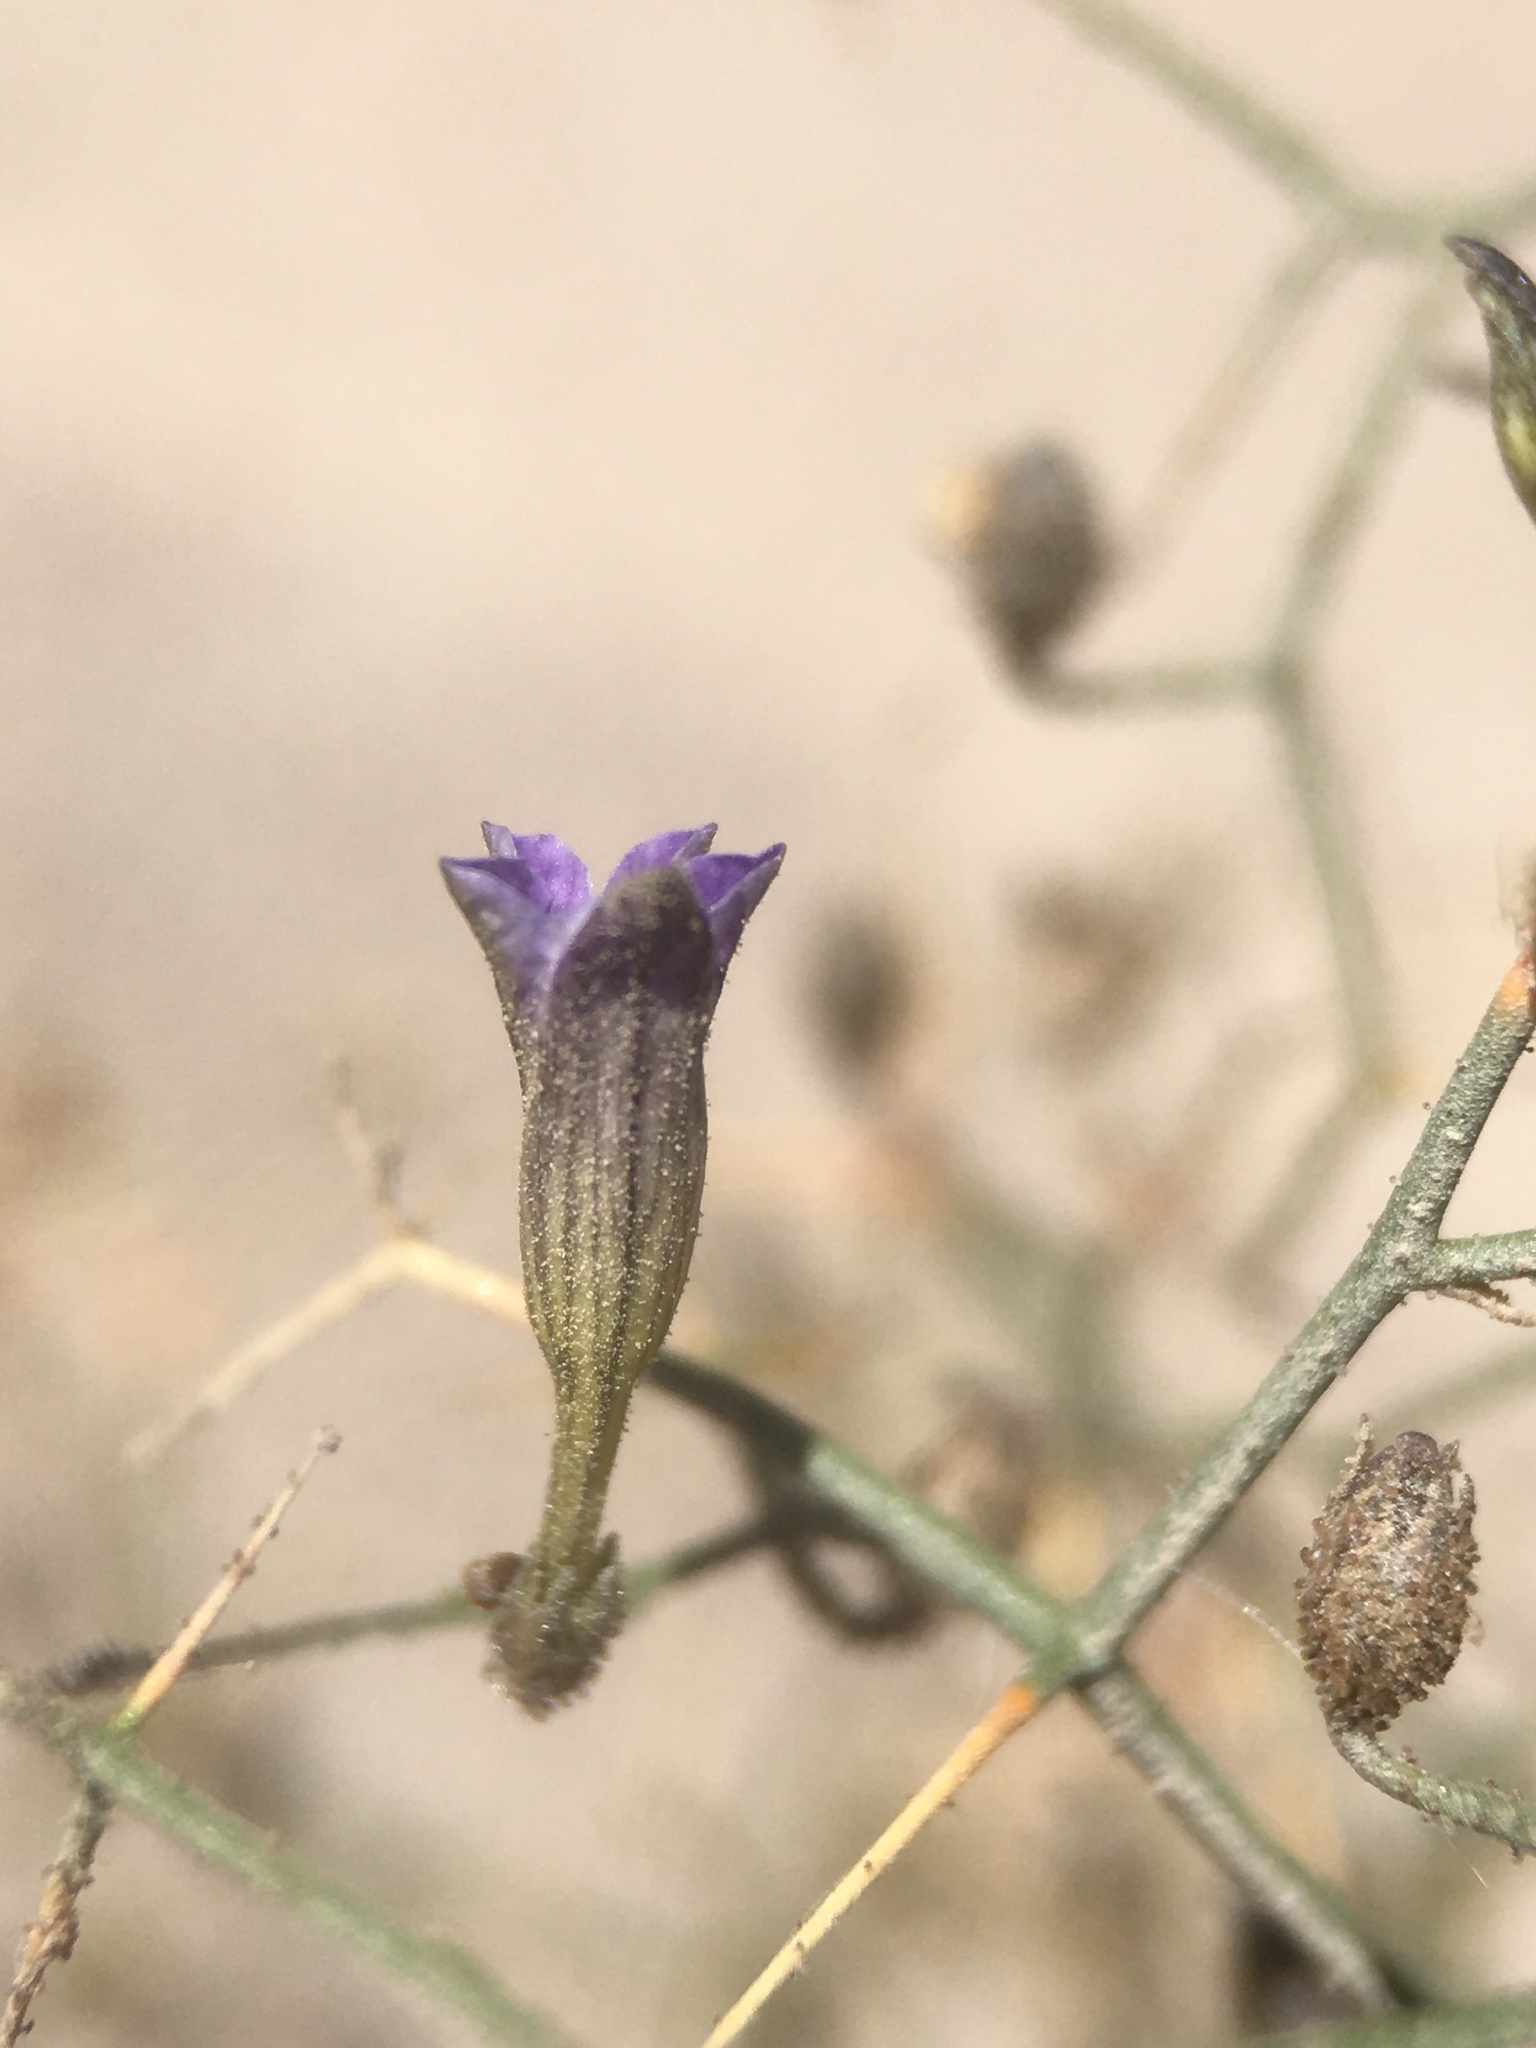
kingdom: Plantae
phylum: Tracheophyta
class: Magnoliopsida
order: Solanales
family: Solanaceae
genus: Reyesia
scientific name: Reyesia juniperoides
